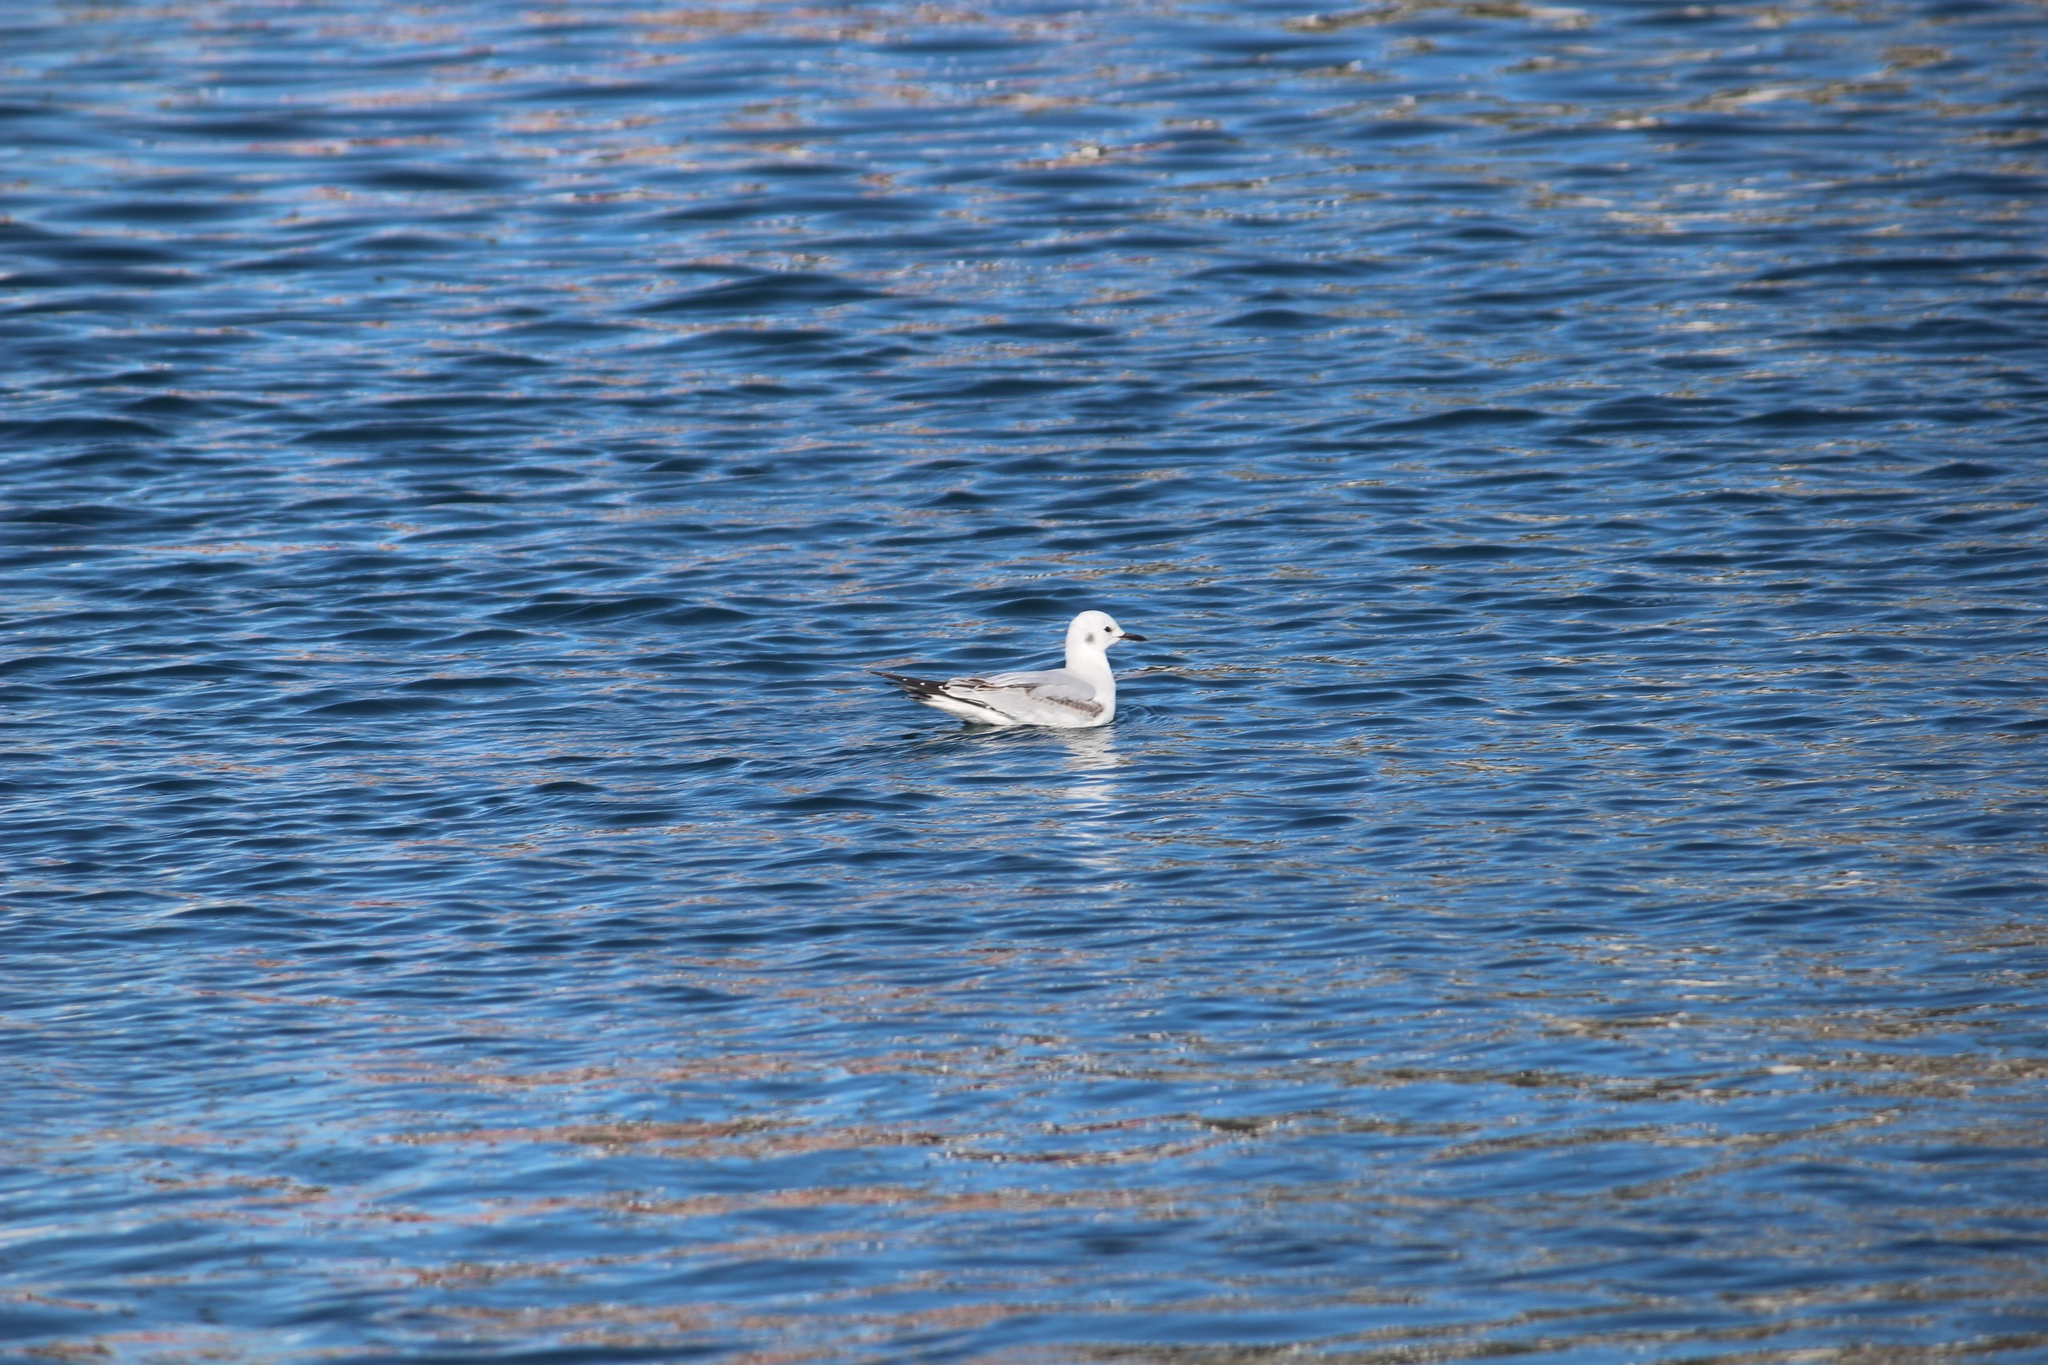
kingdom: Animalia
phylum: Chordata
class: Aves
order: Charadriiformes
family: Laridae
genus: Chroicocephalus
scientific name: Chroicocephalus philadelphia
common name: Bonaparte's gull
